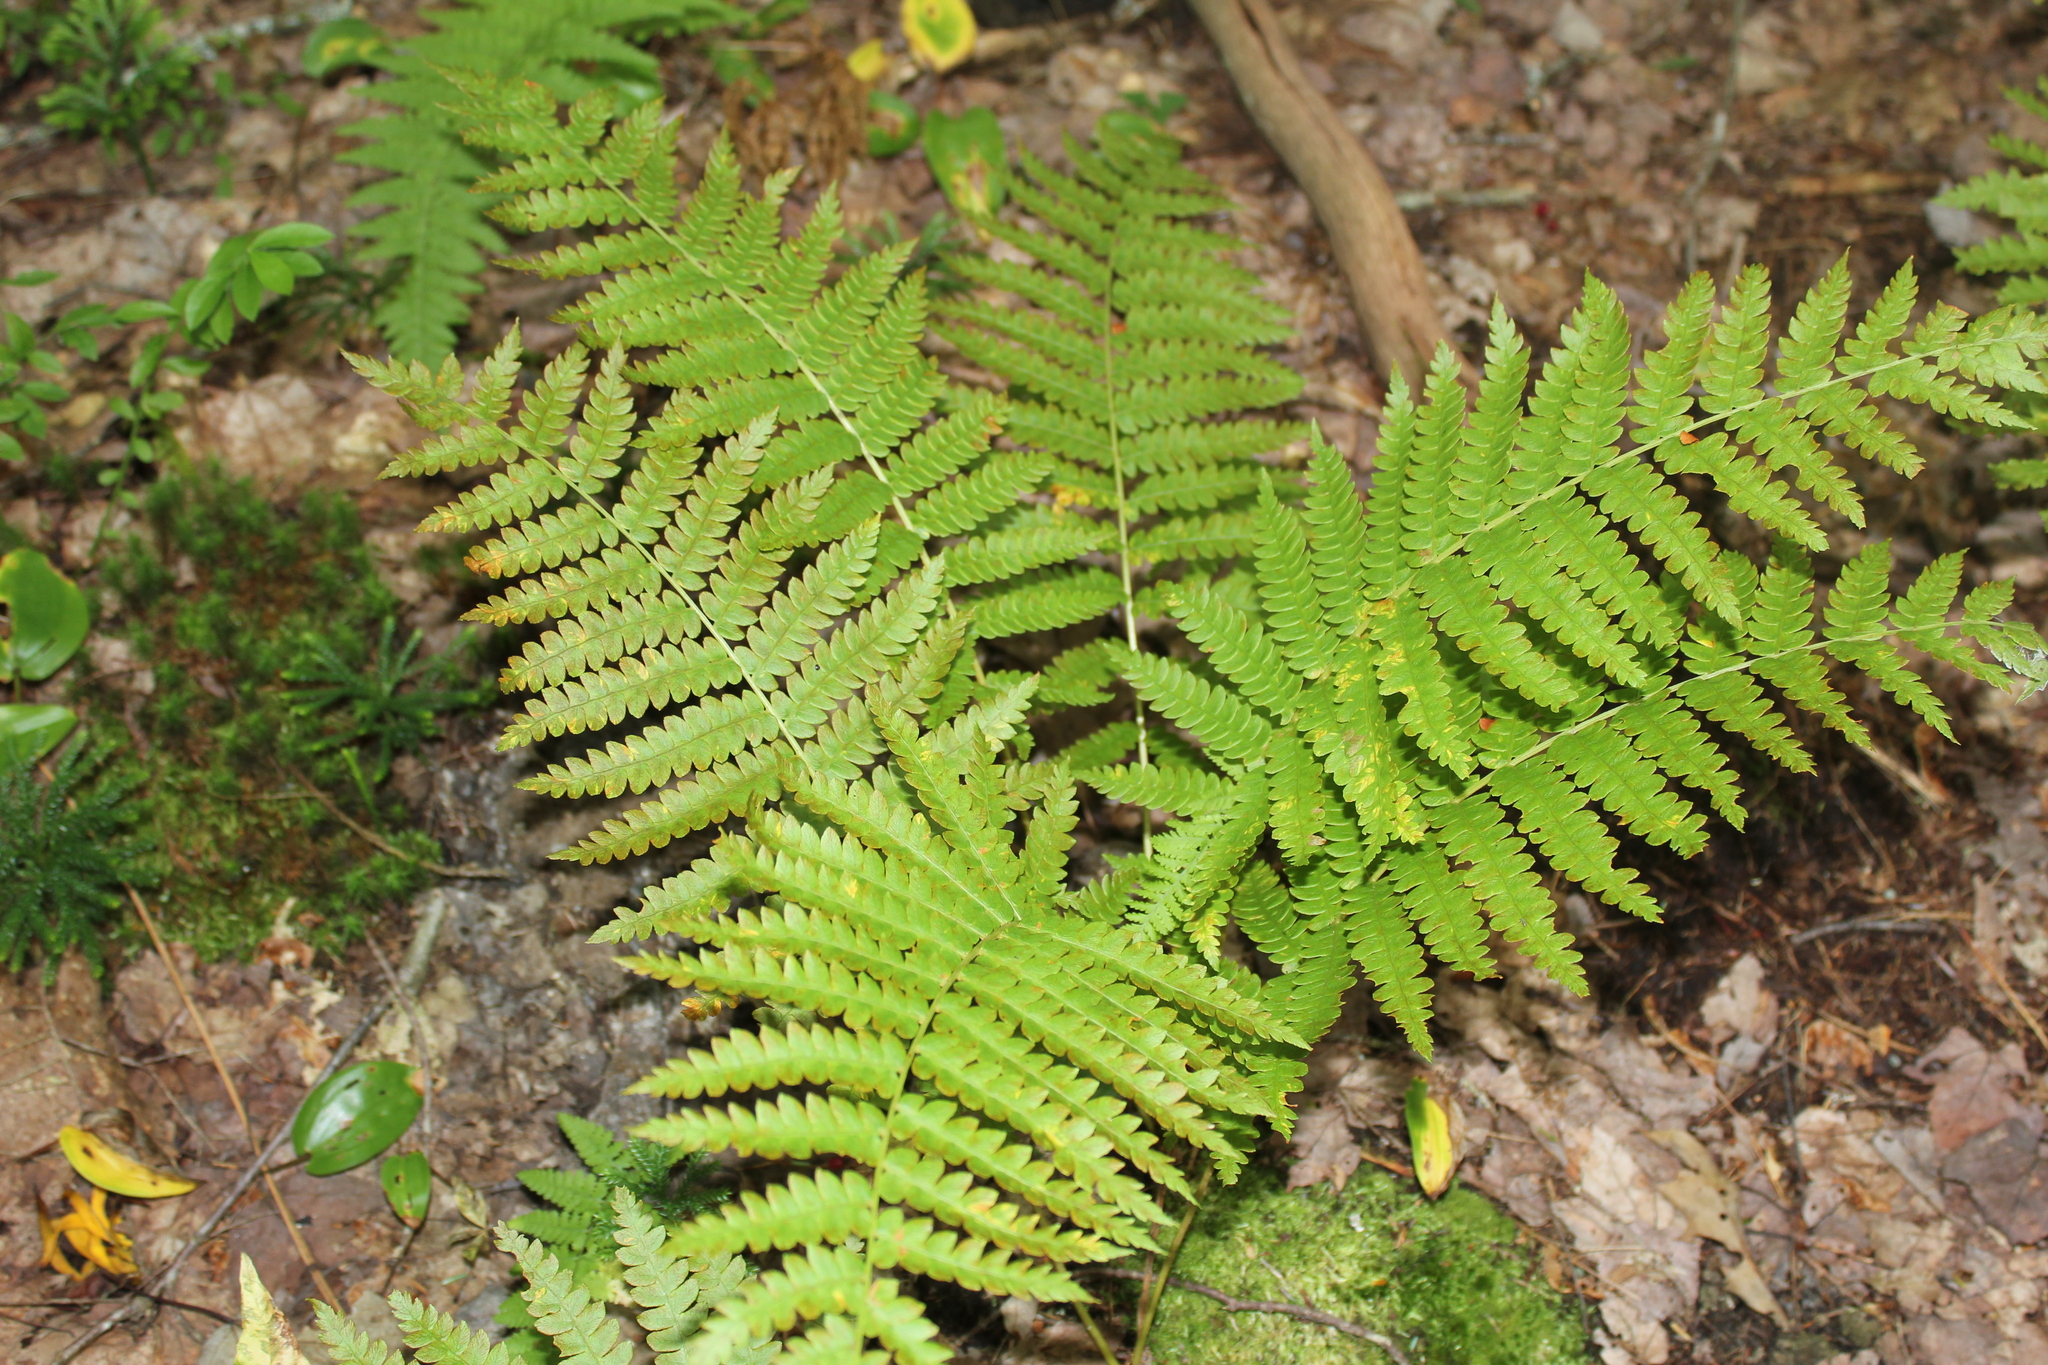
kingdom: Plantae
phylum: Tracheophyta
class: Polypodiopsida
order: Osmundales
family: Osmundaceae
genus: Osmundastrum
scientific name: Osmundastrum cinnamomeum
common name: Cinnamon fern
